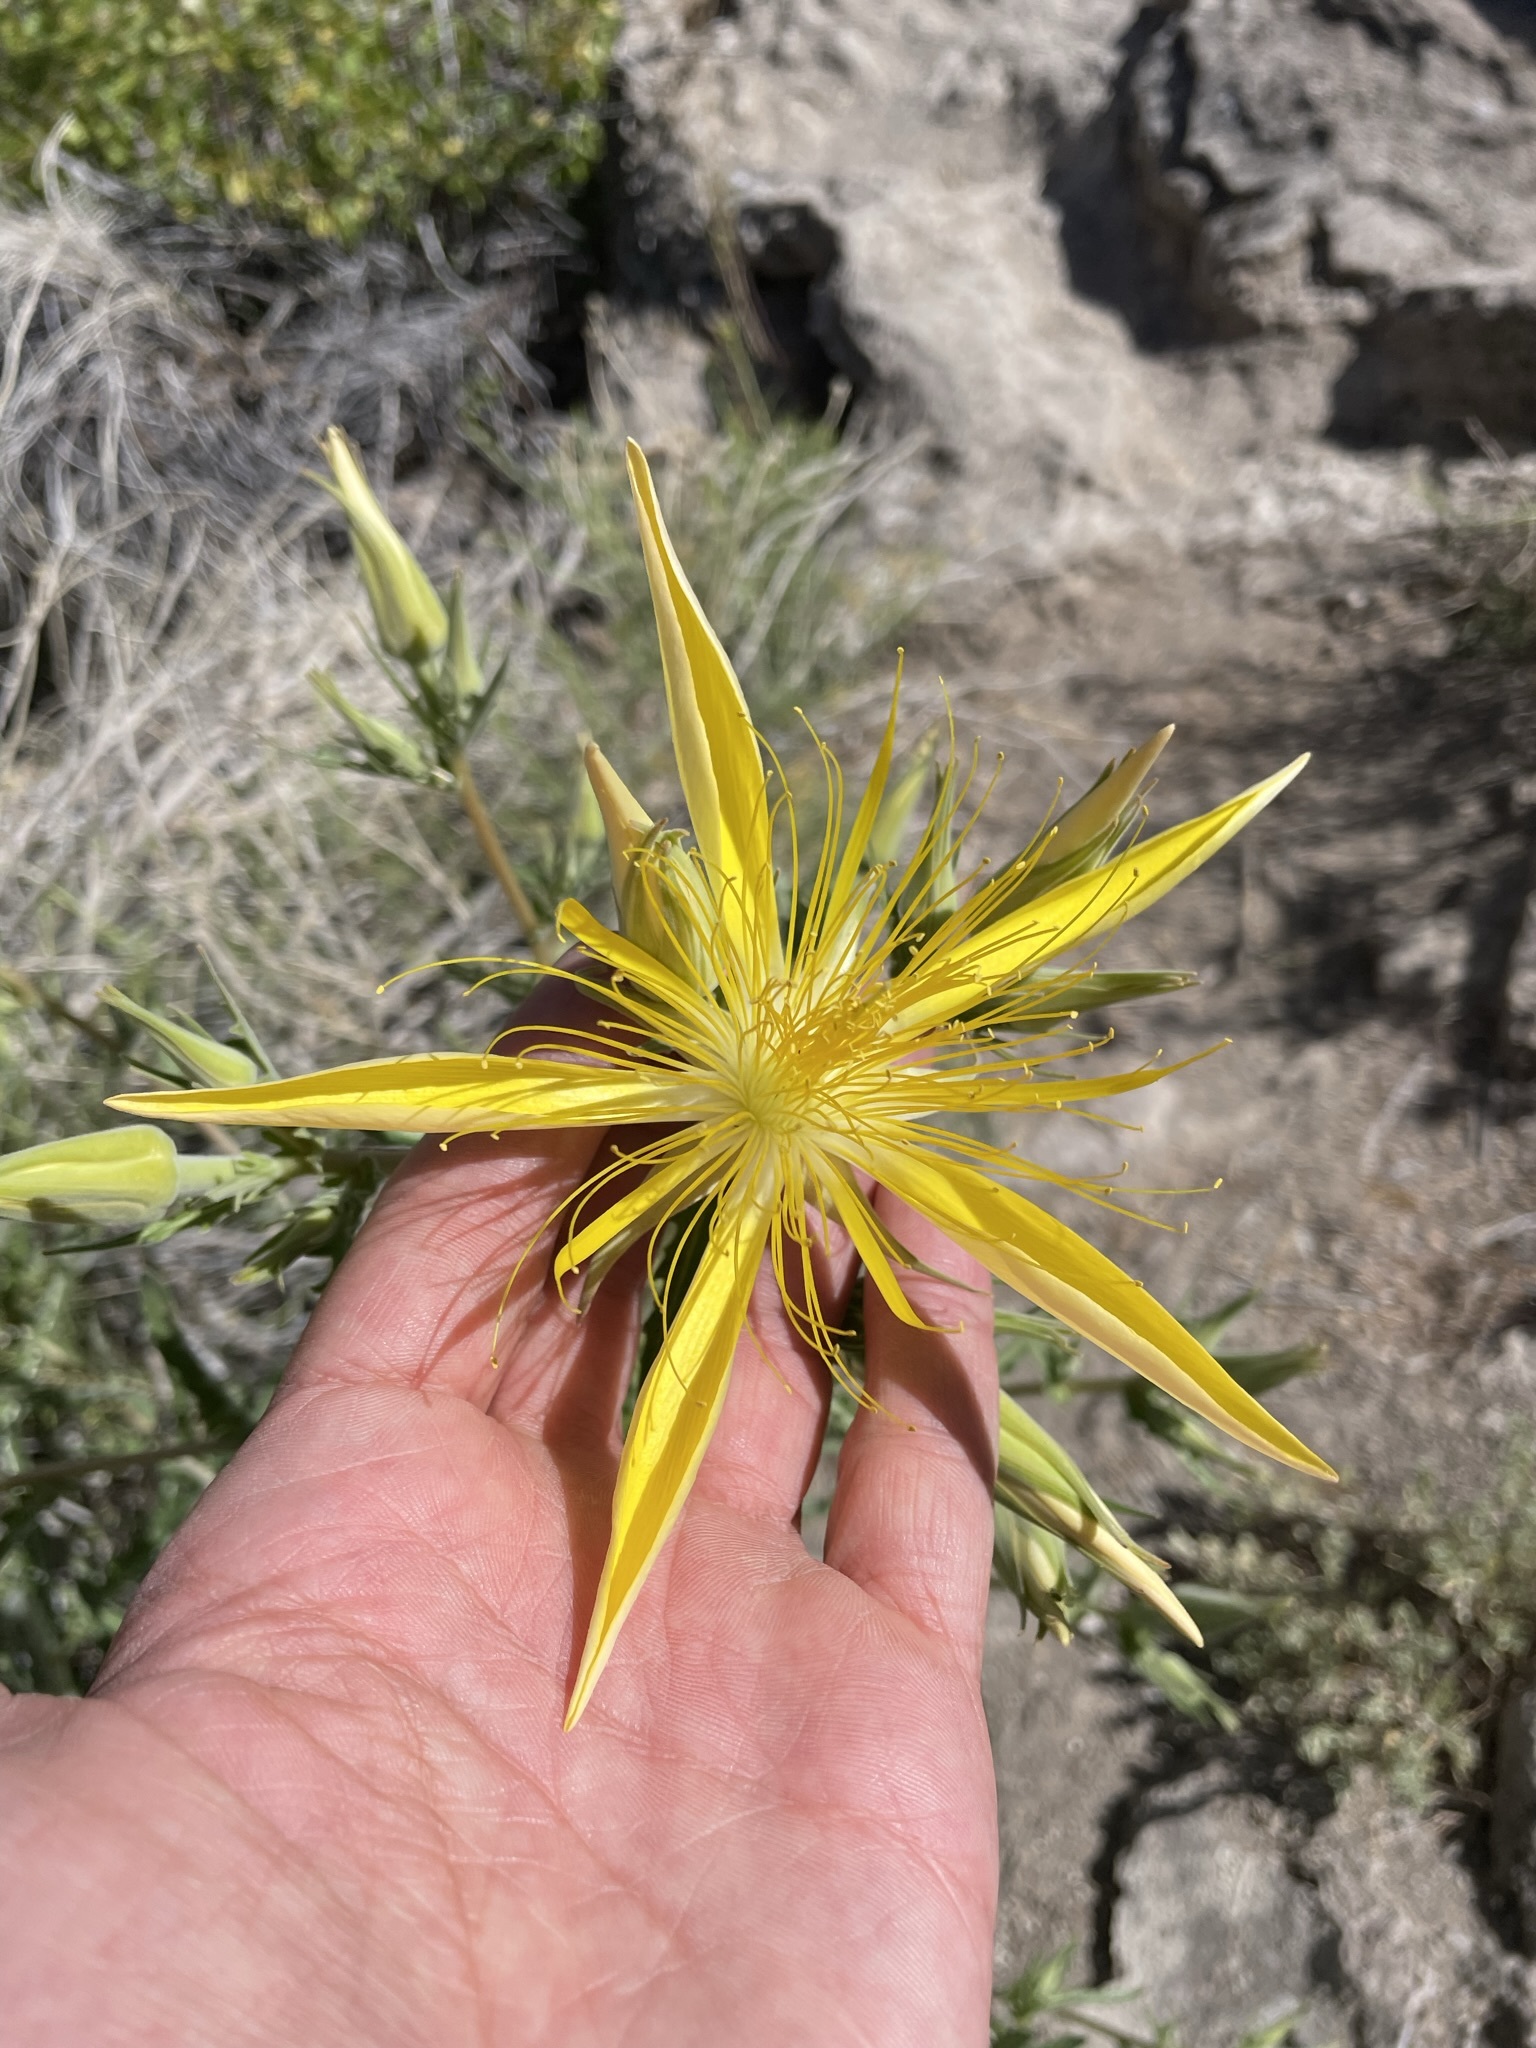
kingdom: Plantae
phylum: Tracheophyta
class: Magnoliopsida
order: Cornales
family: Loasaceae
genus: Mentzelia
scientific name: Mentzelia laevicaulis
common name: Smooth-stem blazingstar
